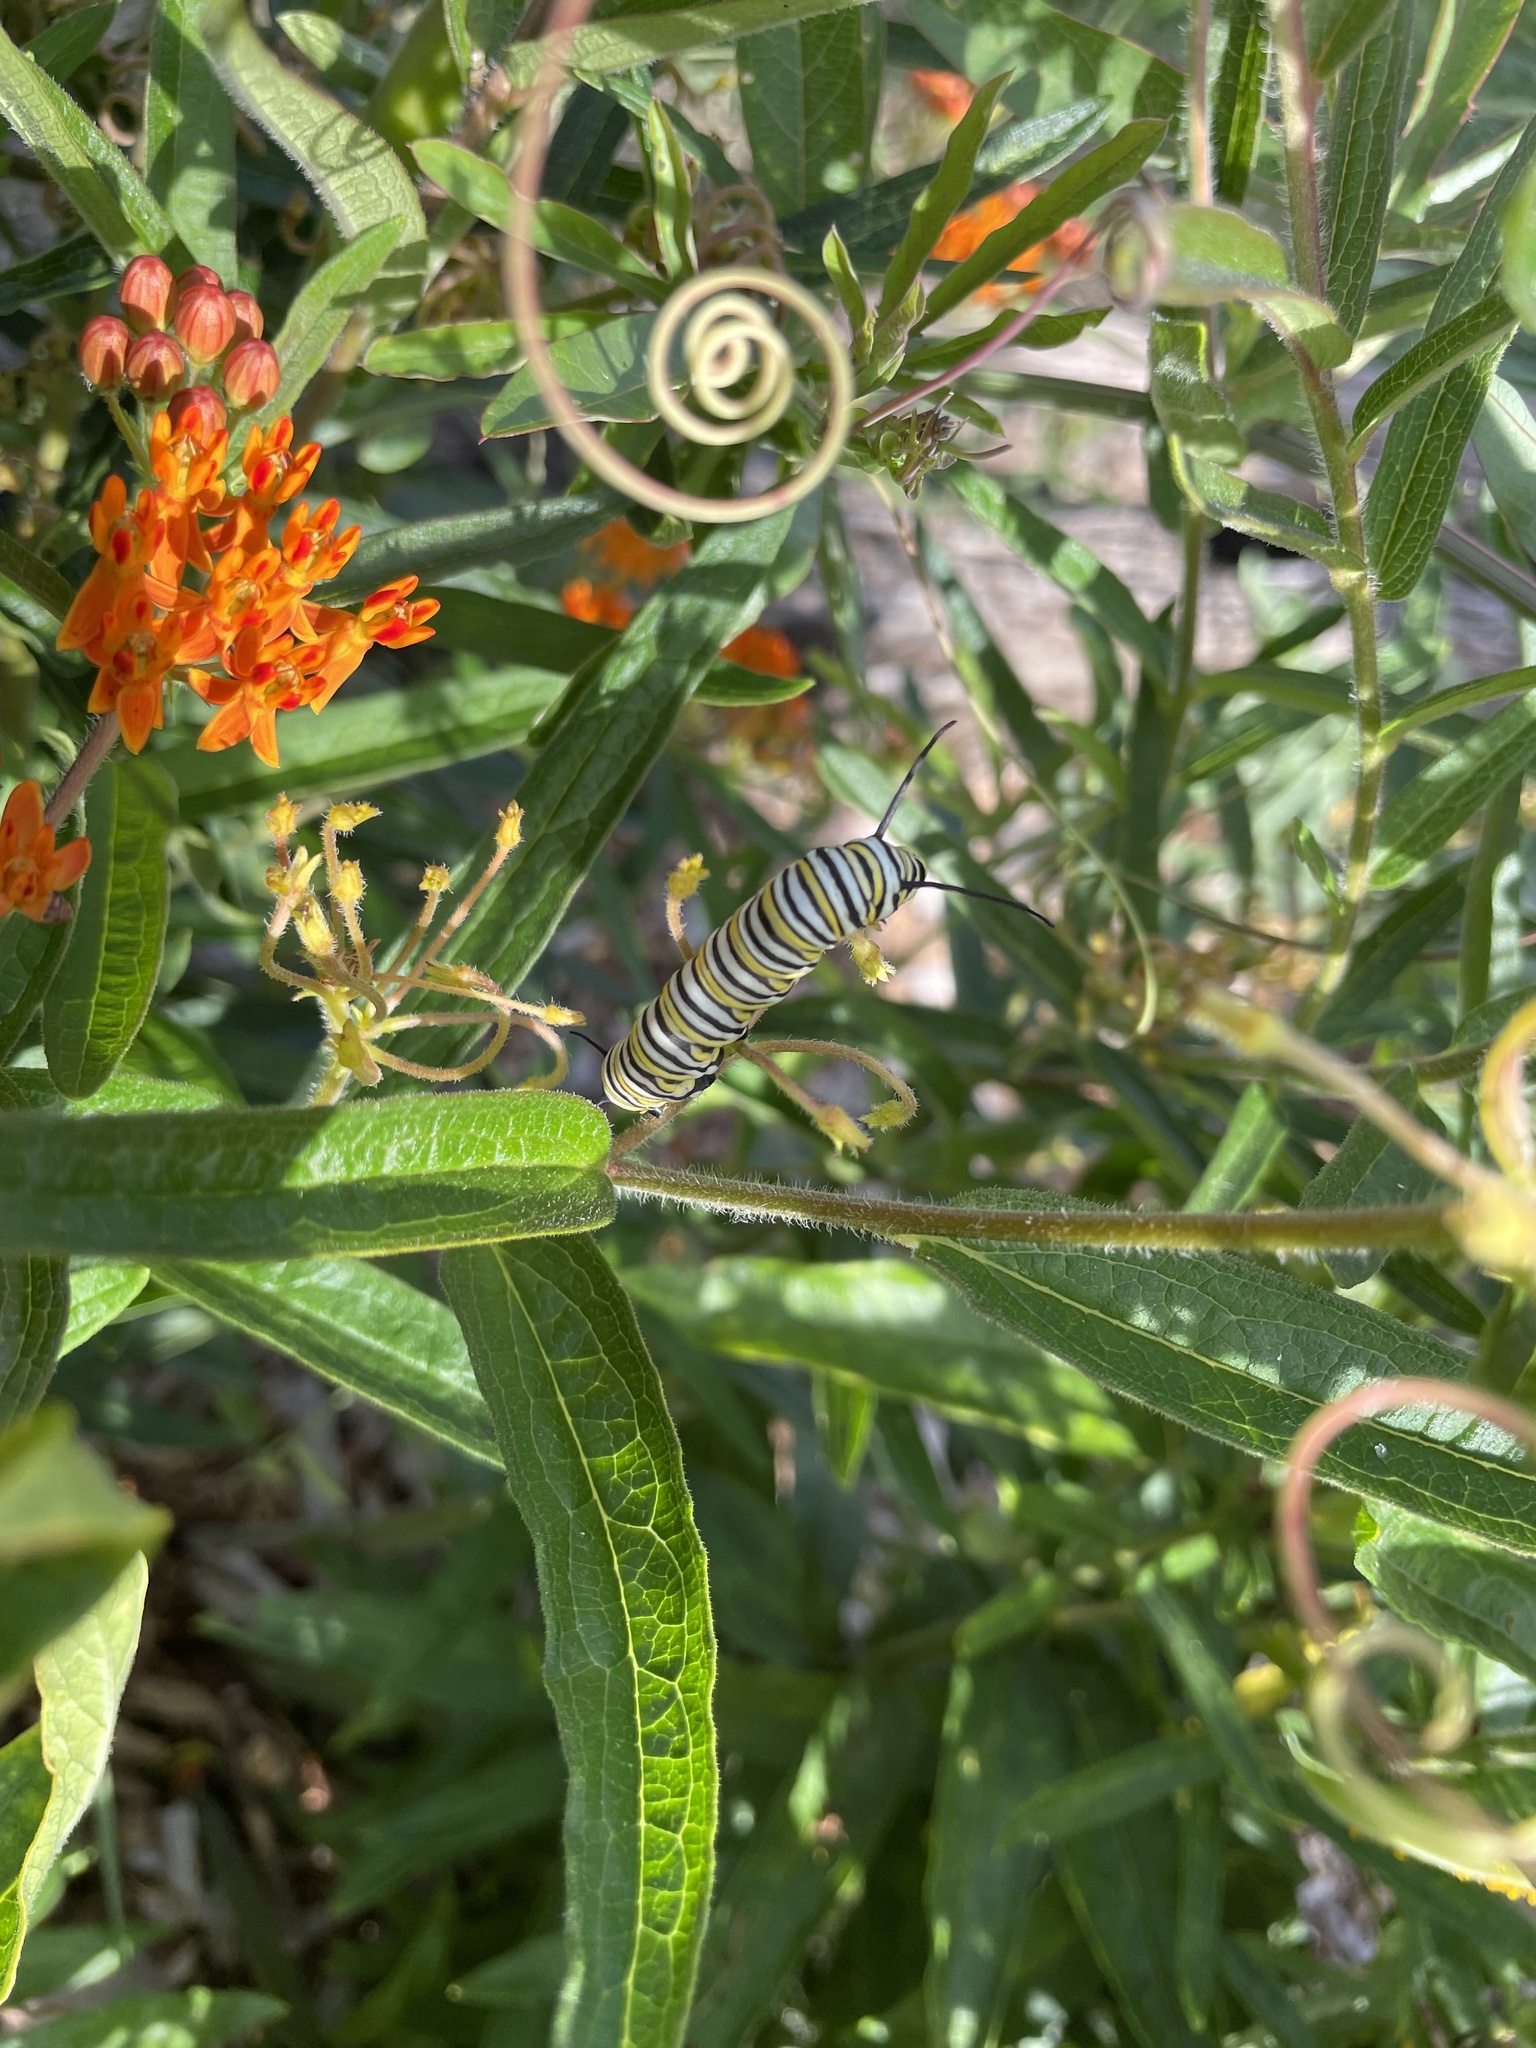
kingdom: Animalia
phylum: Arthropoda
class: Insecta
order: Lepidoptera
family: Nymphalidae
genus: Danaus
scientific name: Danaus plexippus
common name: Monarch
